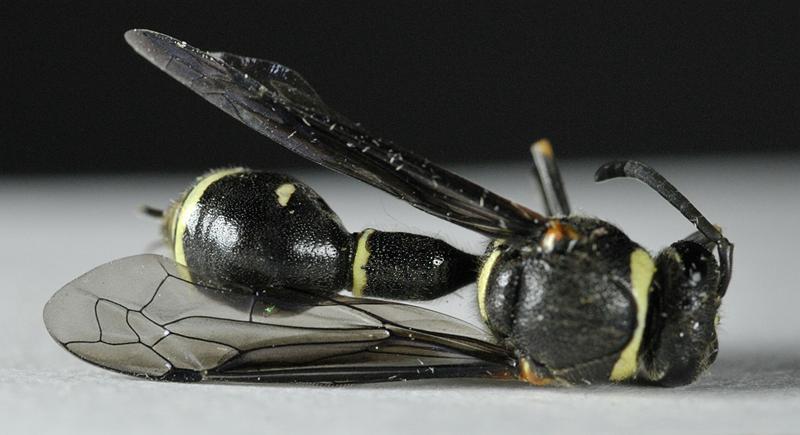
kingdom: Animalia
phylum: Arthropoda
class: Insecta
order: Hymenoptera
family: Vespidae
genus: Eumenes
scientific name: Eumenes fraternus
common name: Fraternal potter wasp
